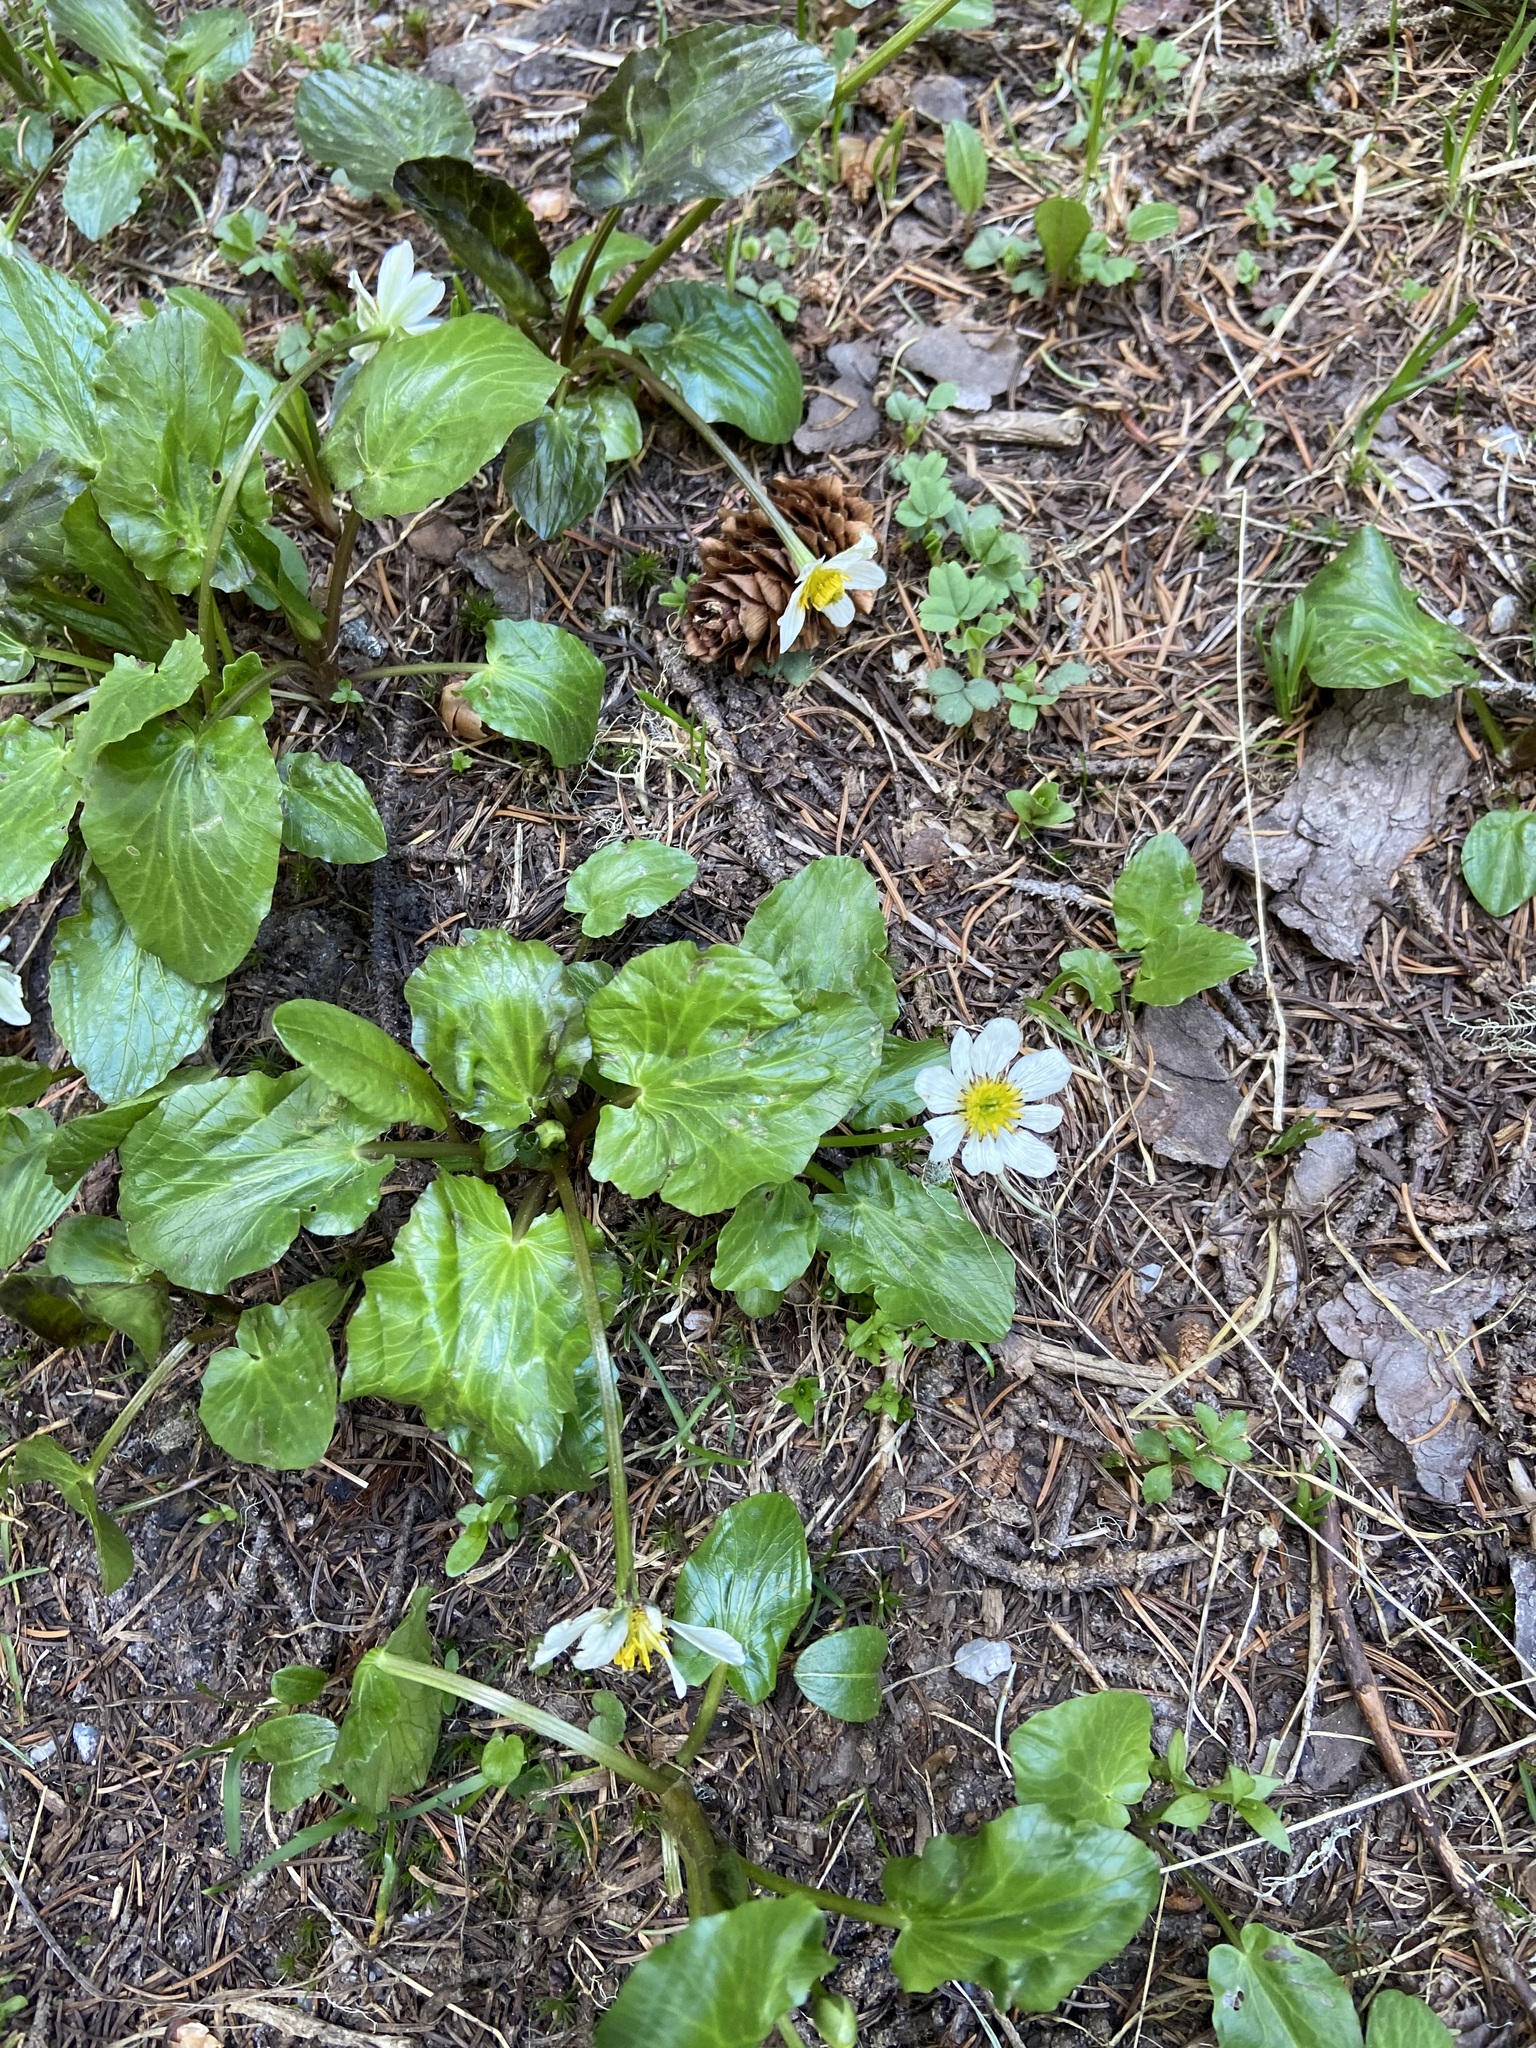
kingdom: Plantae
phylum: Tracheophyta
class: Magnoliopsida
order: Ranunculales
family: Ranunculaceae
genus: Caltha
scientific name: Caltha leptosepala
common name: Elkslip
